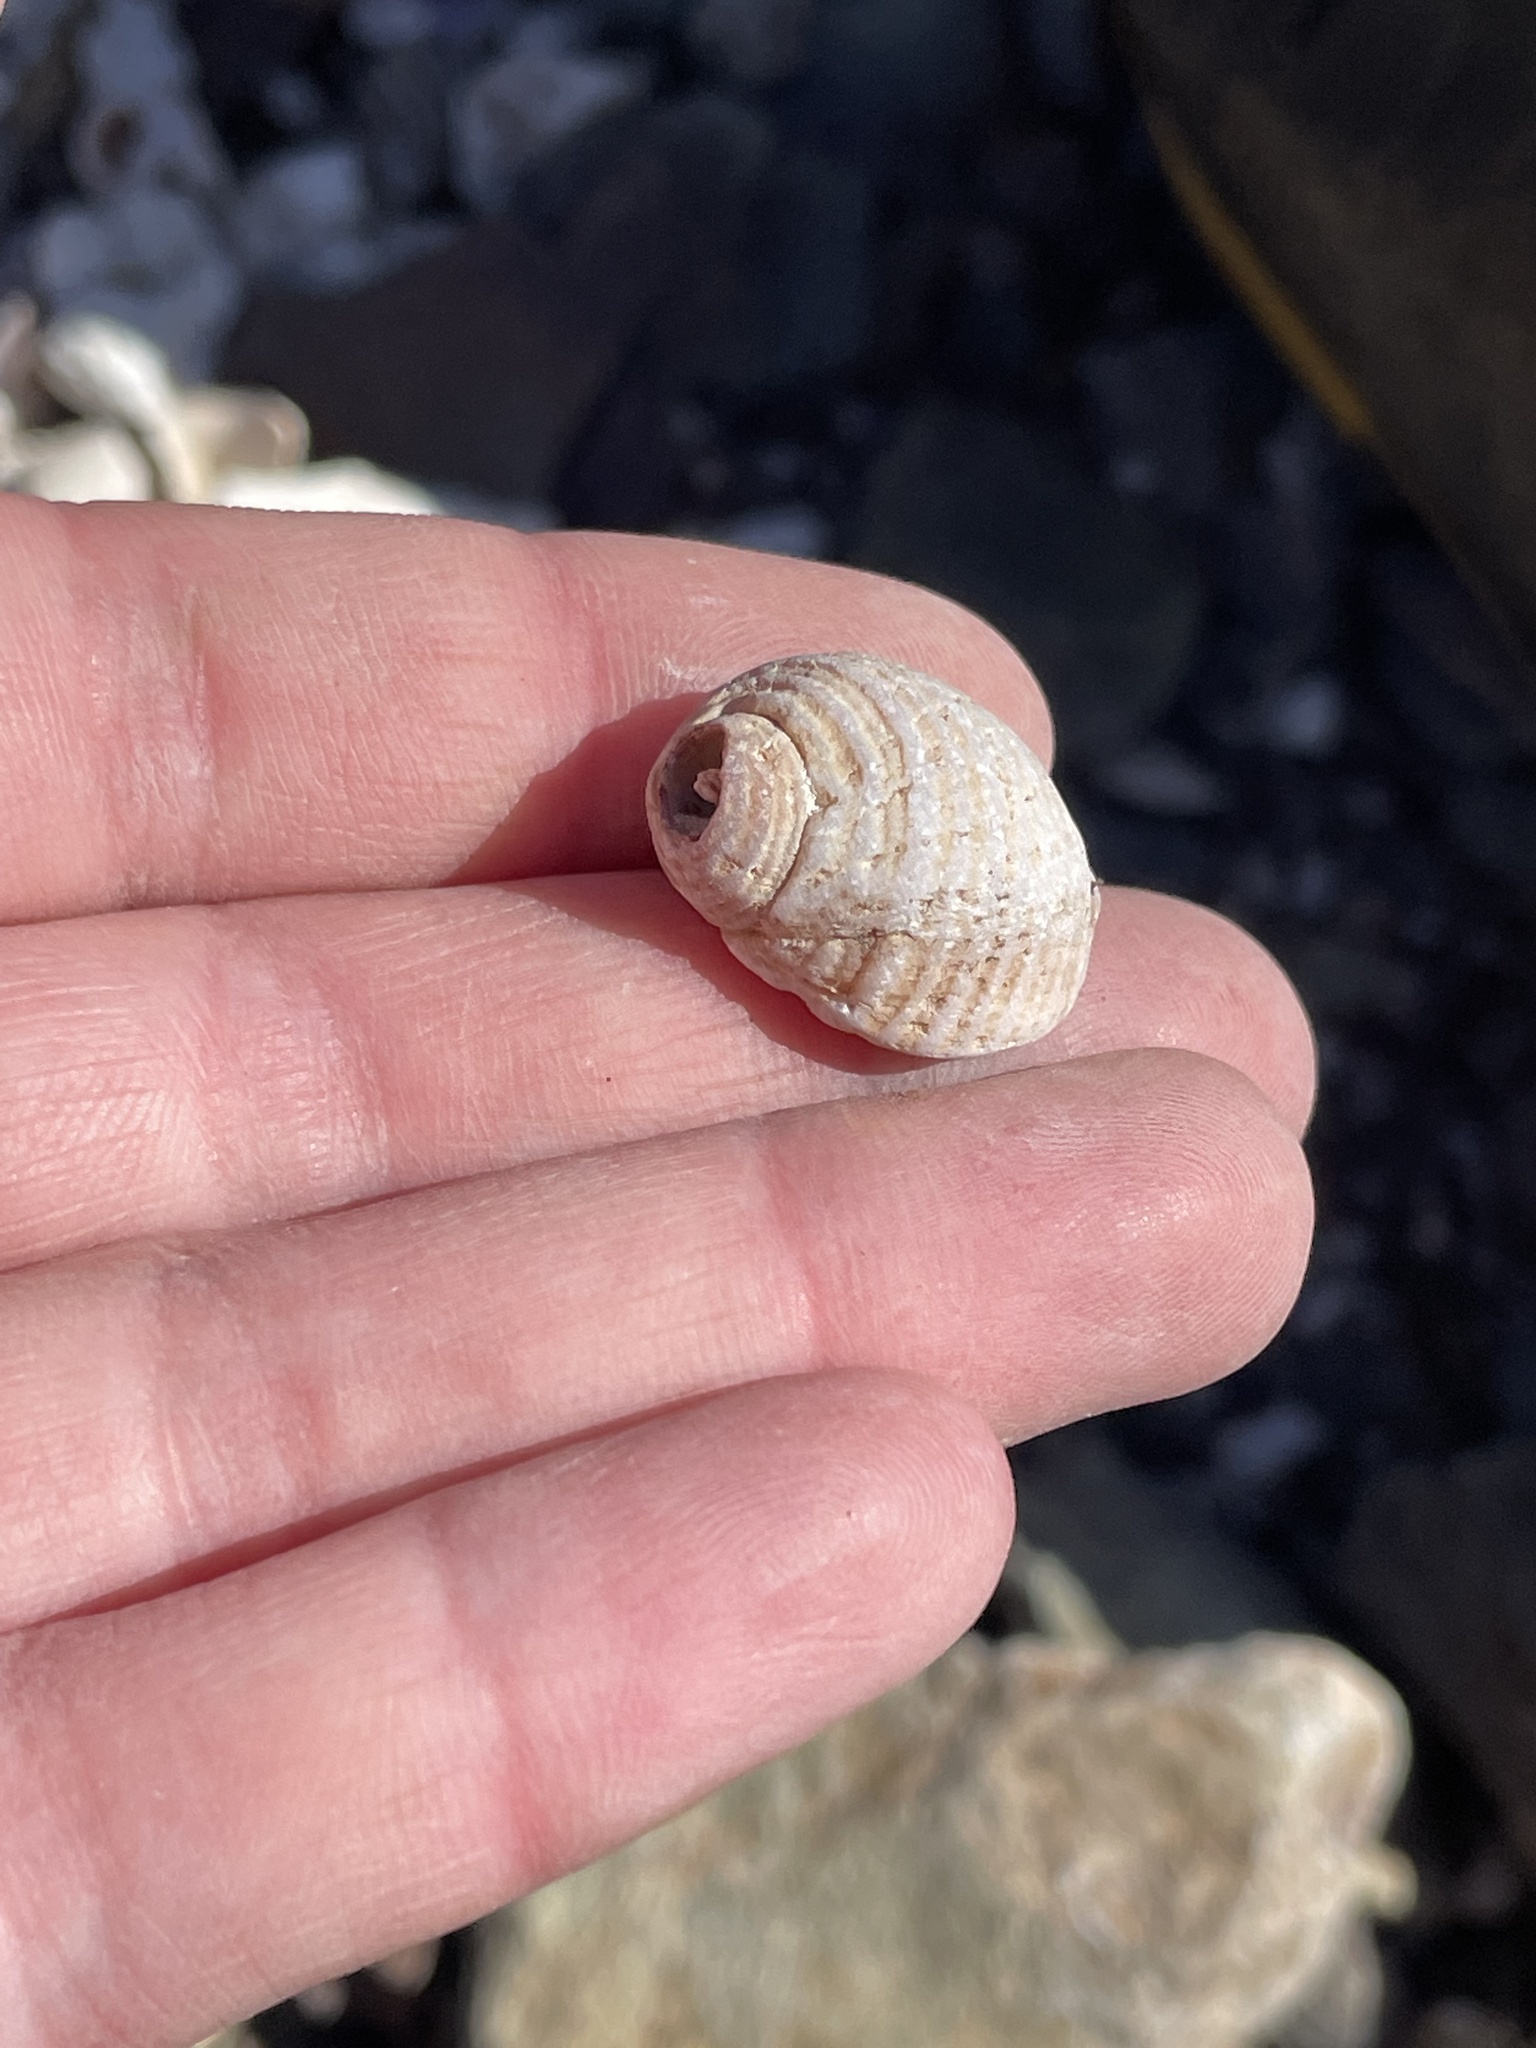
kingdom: Animalia
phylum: Mollusca
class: Gastropoda
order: Neogastropoda
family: Muricidae
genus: Nucella
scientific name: Nucella lapillus
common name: Dog whelk
